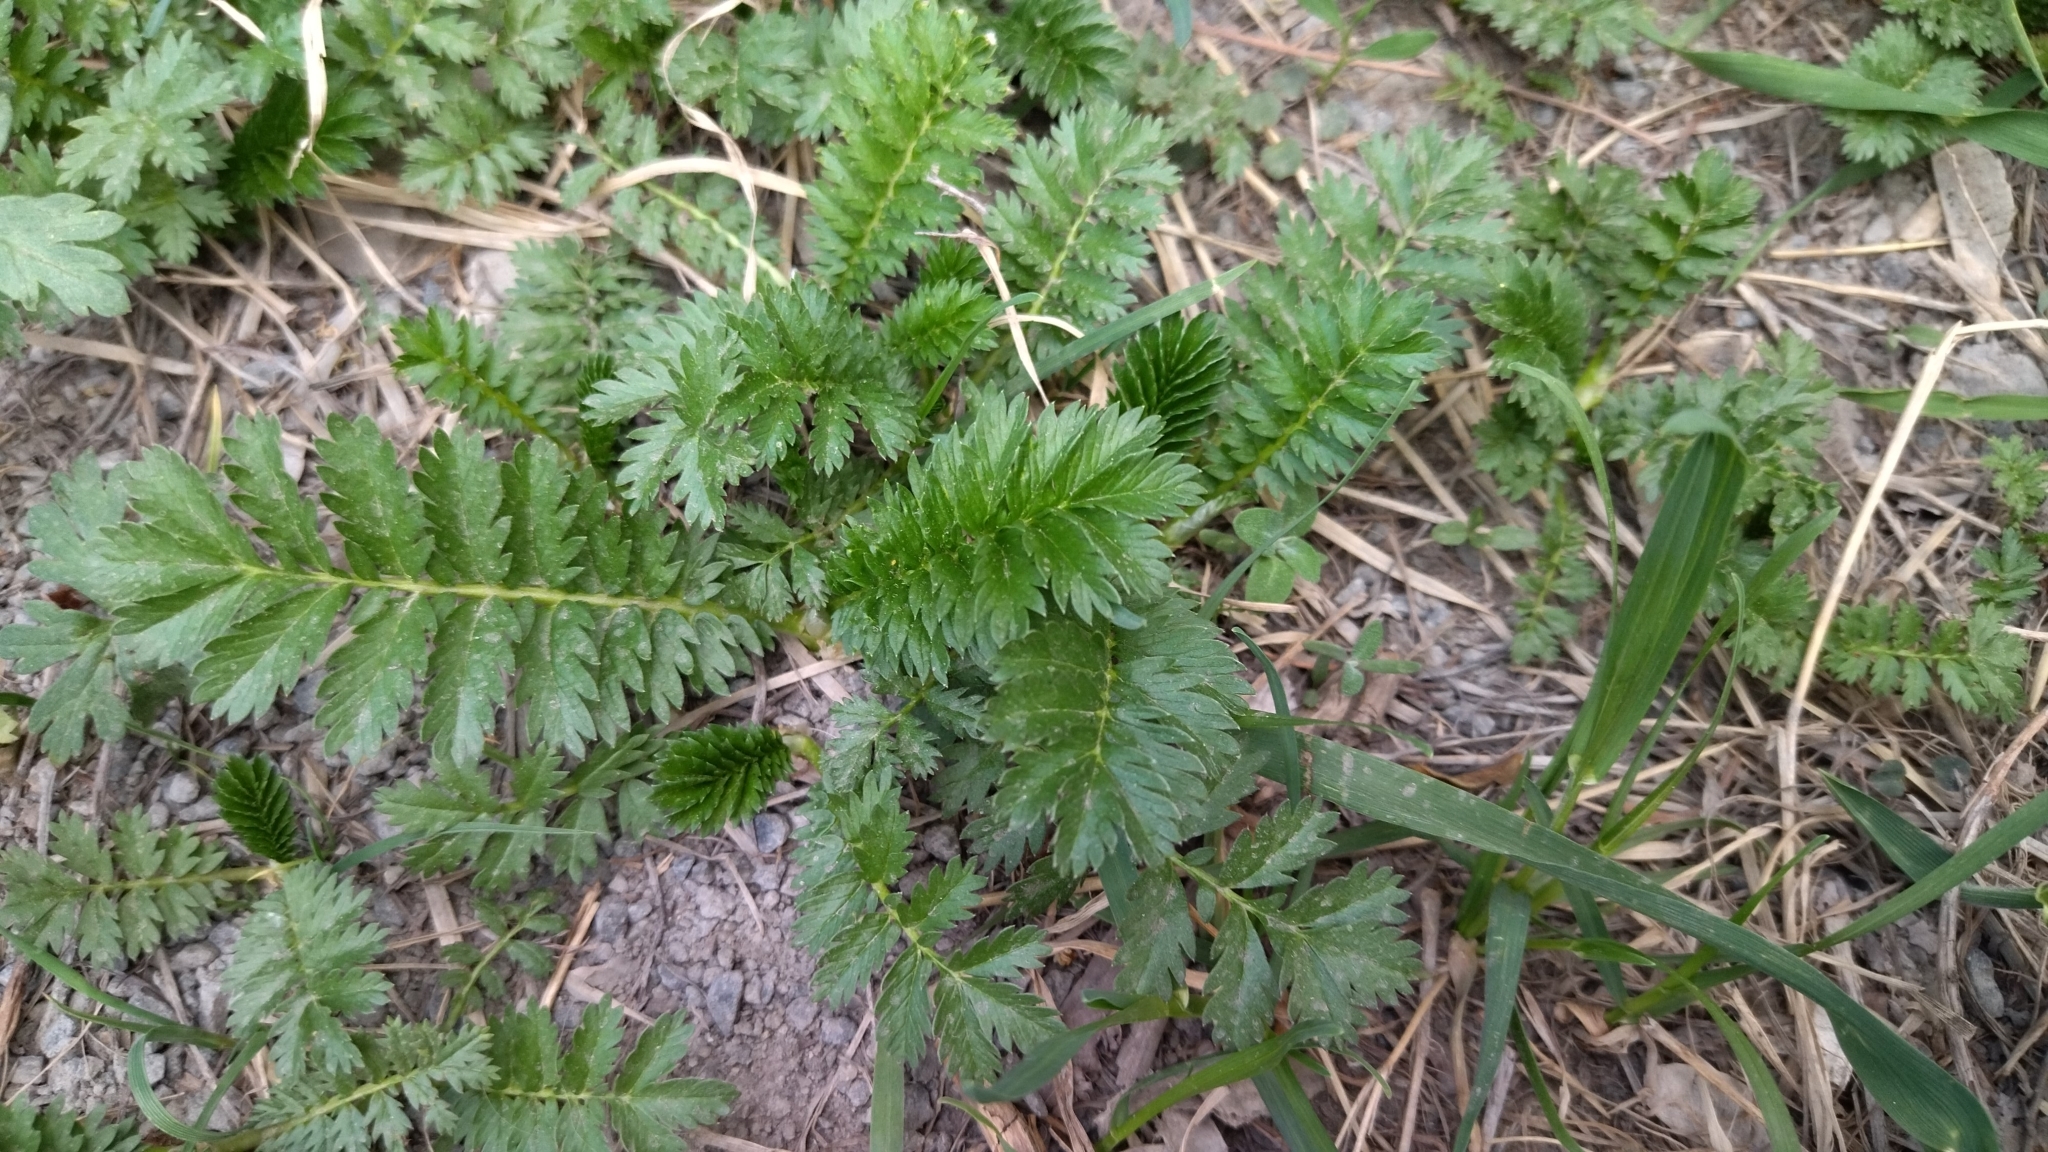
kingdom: Plantae
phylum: Tracheophyta
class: Magnoliopsida
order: Rosales
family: Rosaceae
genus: Argentina
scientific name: Argentina anserina
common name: Common silverweed
